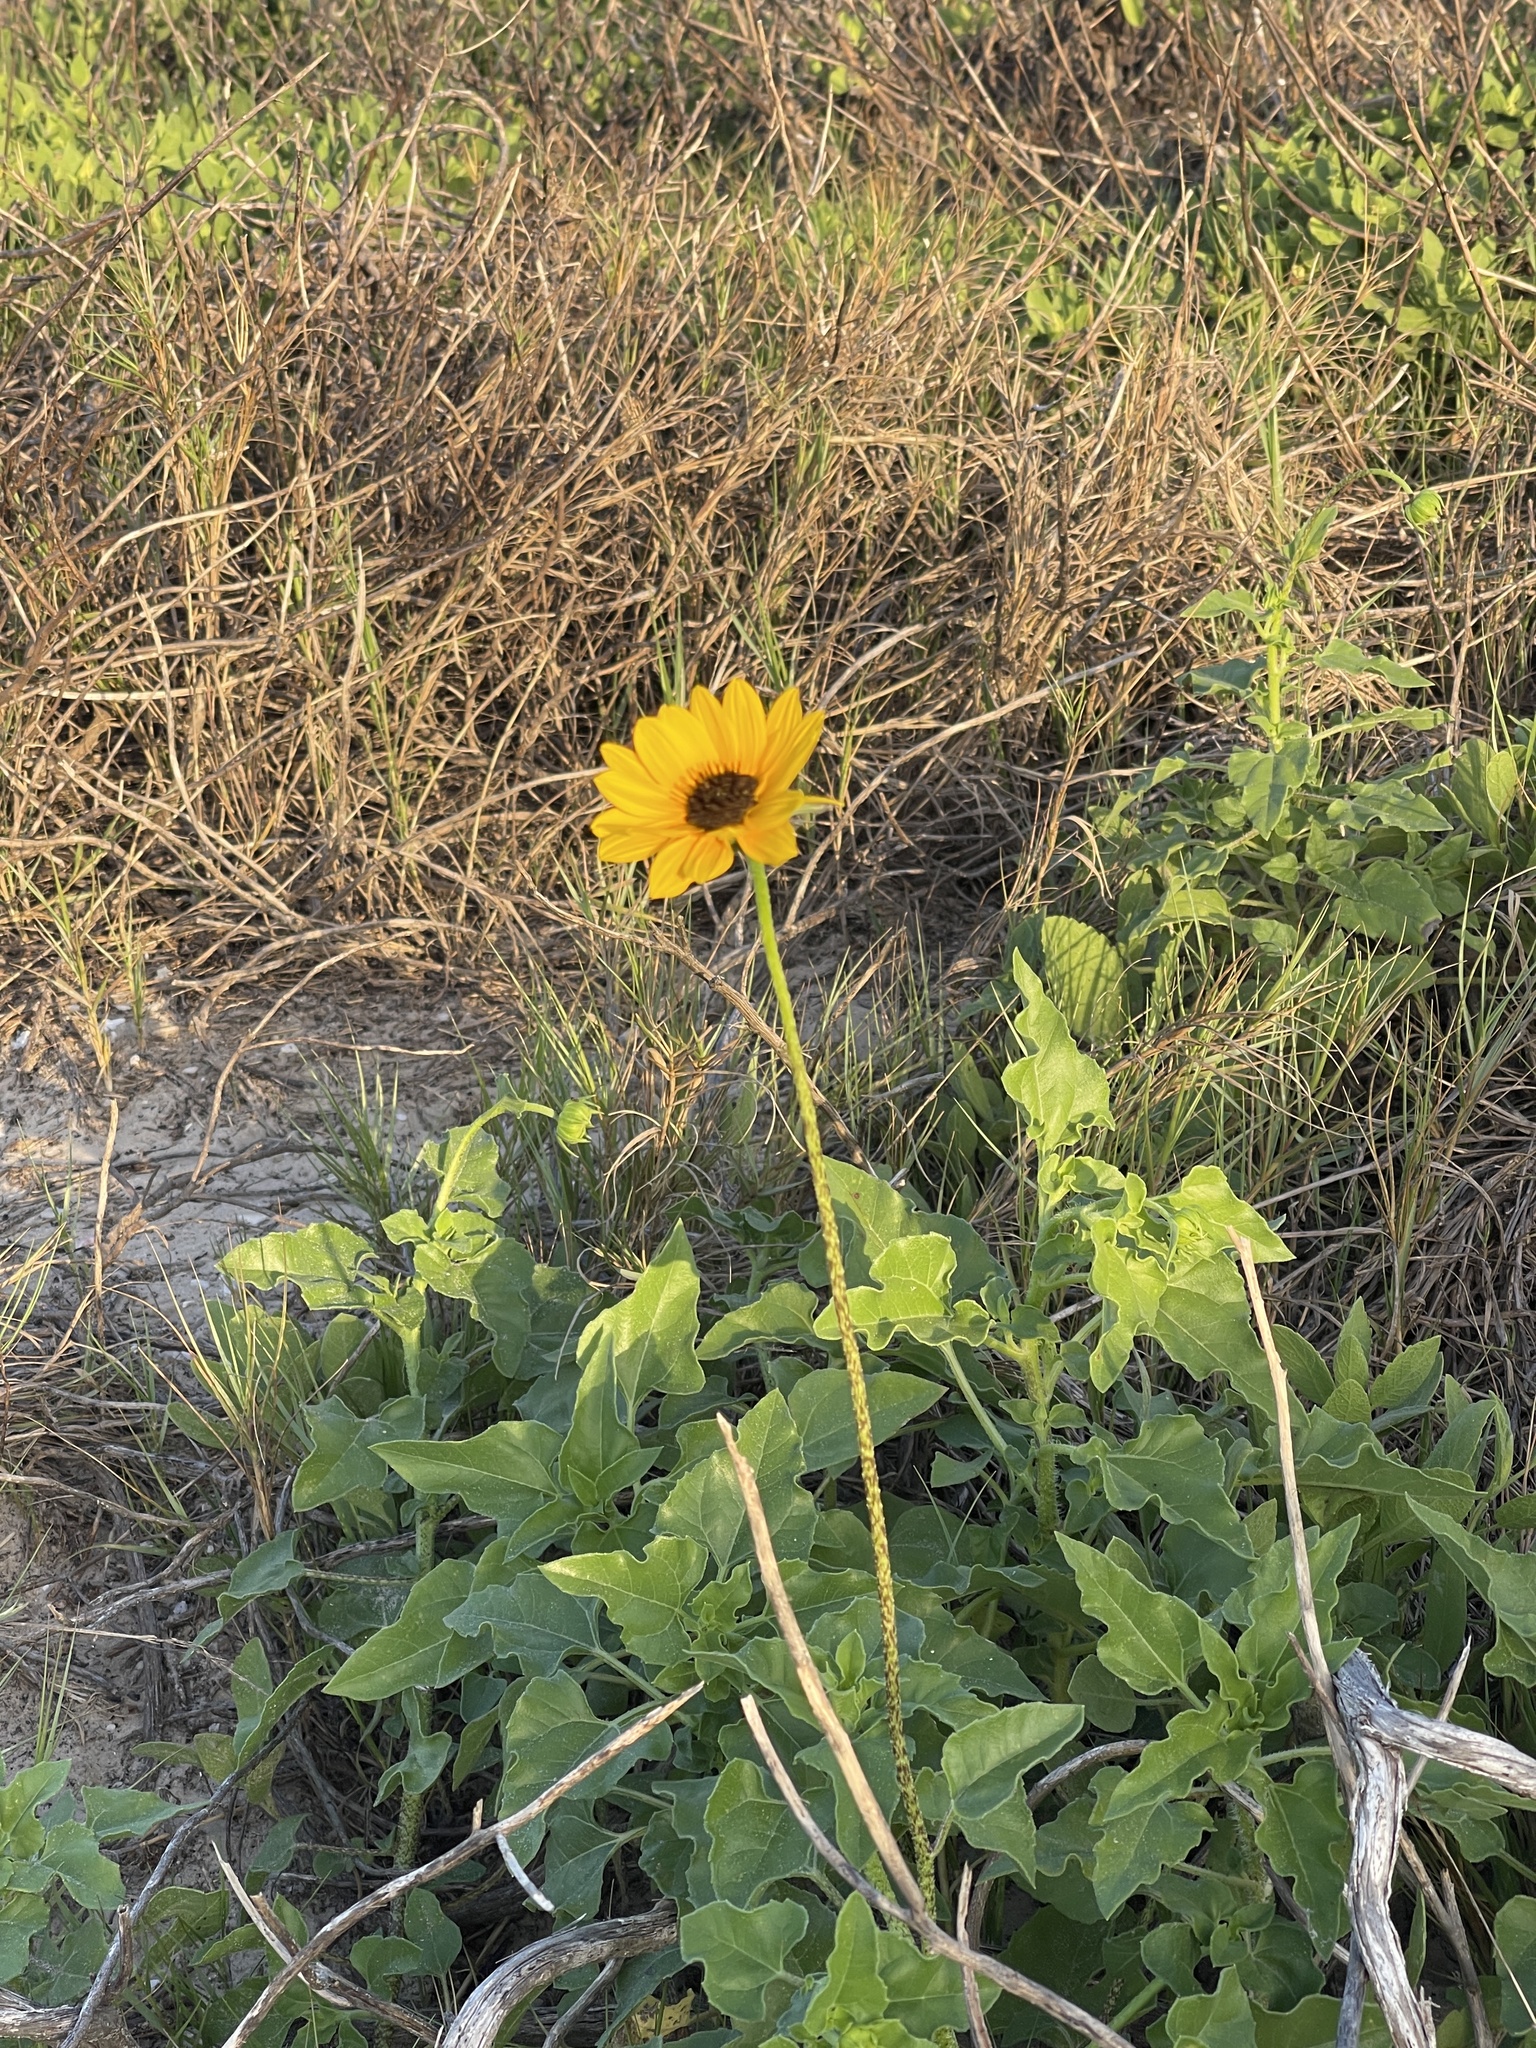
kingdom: Plantae
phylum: Tracheophyta
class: Magnoliopsida
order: Asterales
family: Asteraceae
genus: Helianthus
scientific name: Helianthus praecox
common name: Texas sunflower
